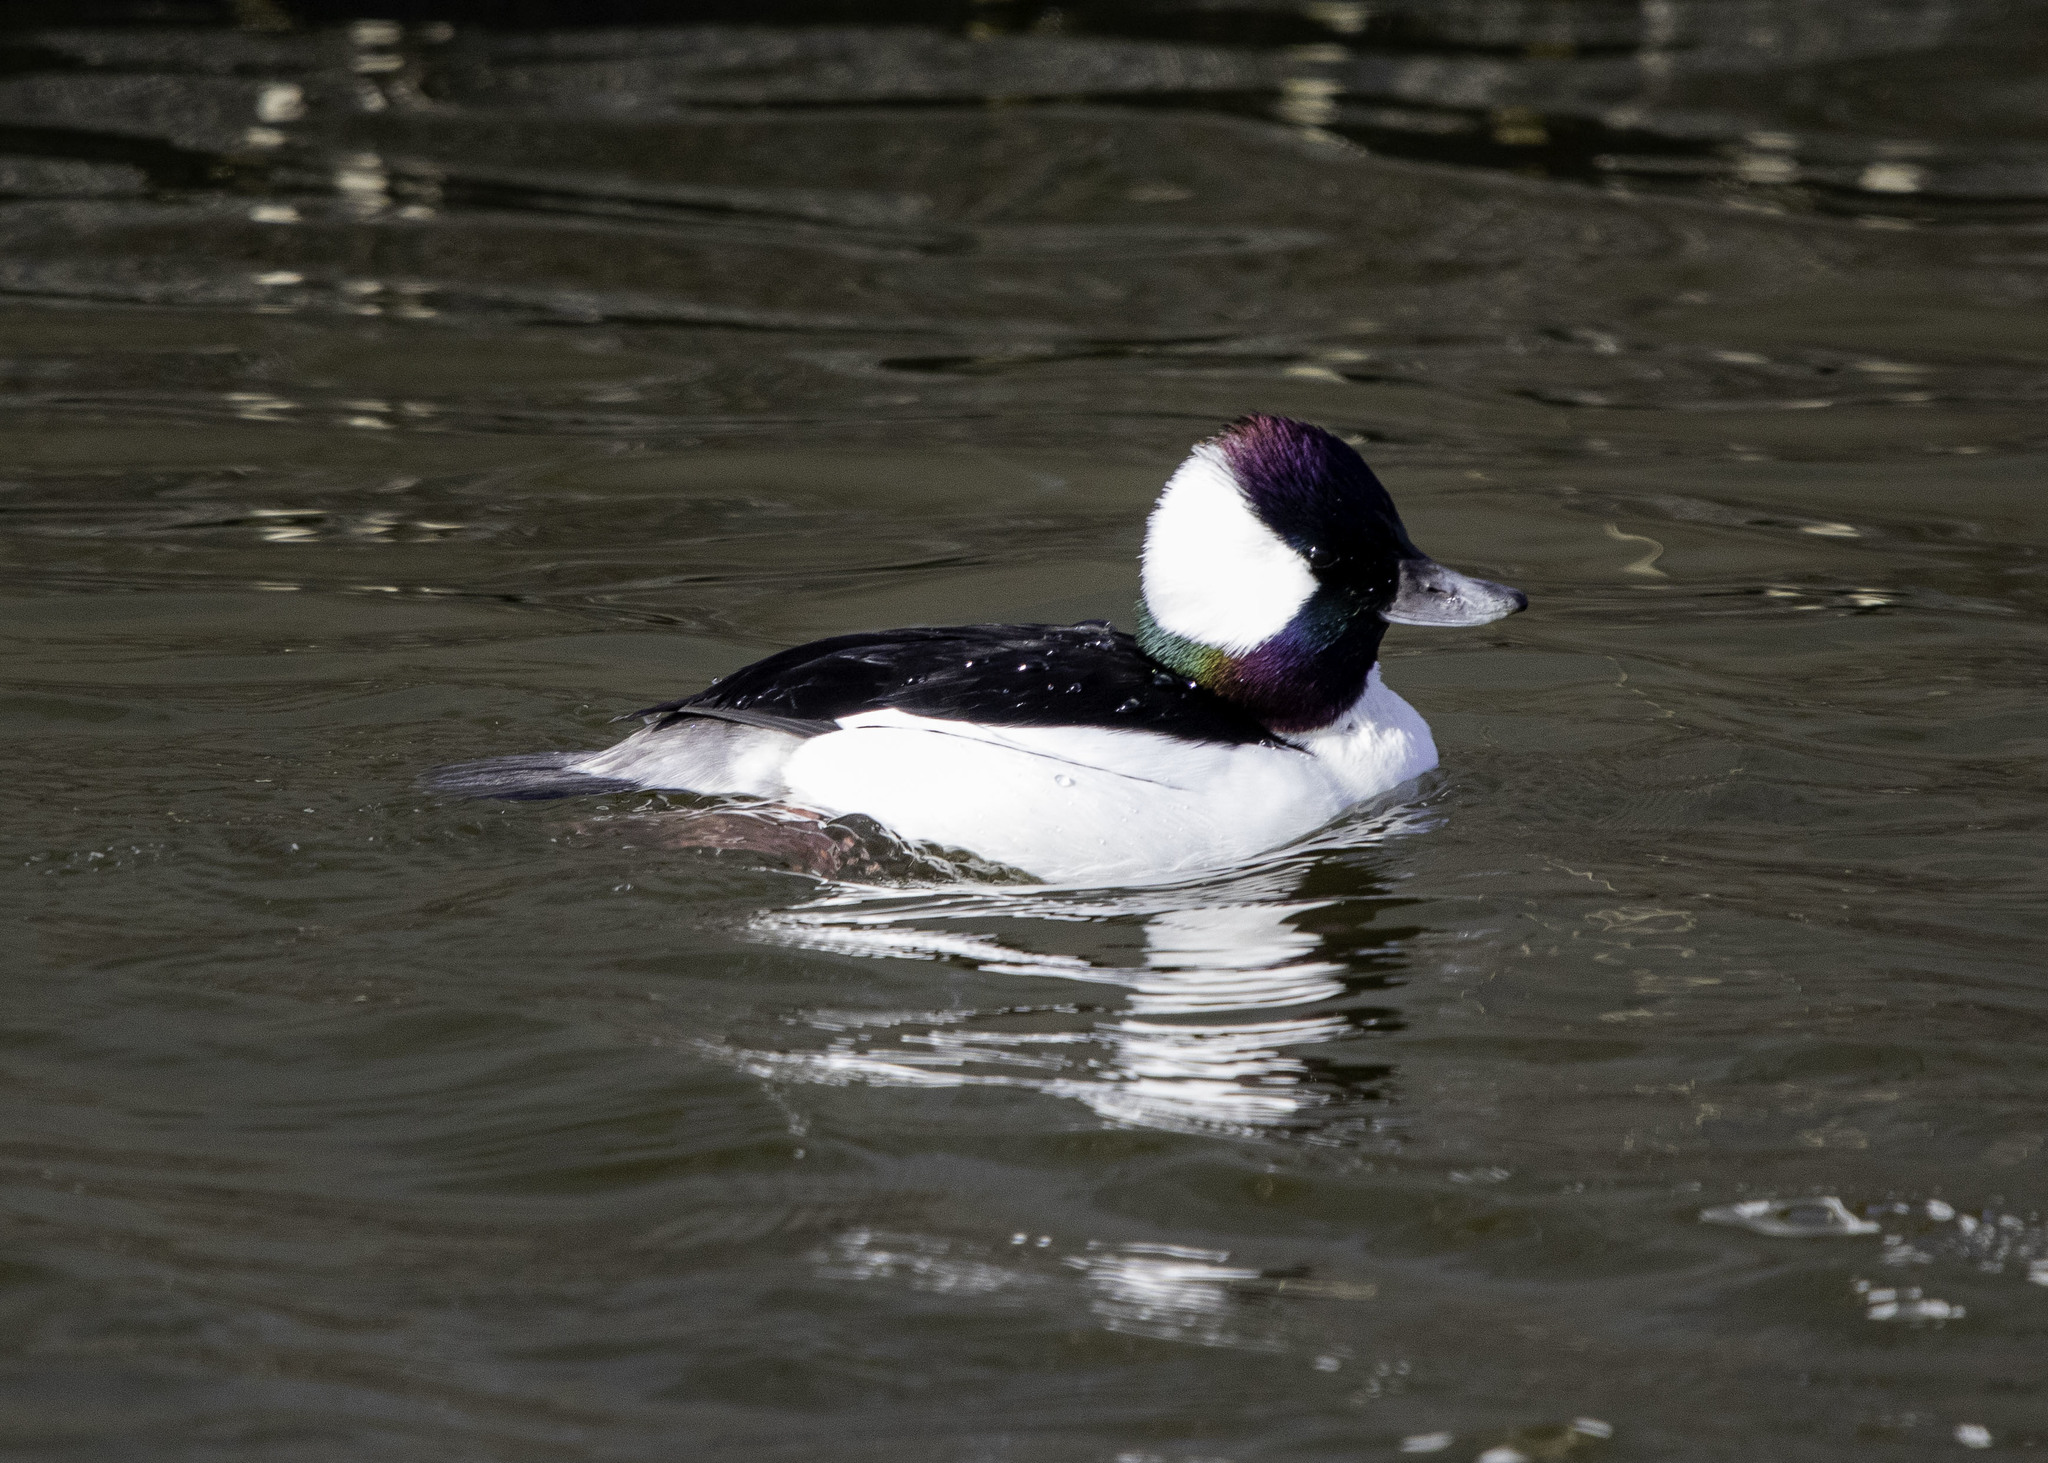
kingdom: Animalia
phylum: Chordata
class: Aves
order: Anseriformes
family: Anatidae
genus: Bucephala
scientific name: Bucephala albeola
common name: Bufflehead
